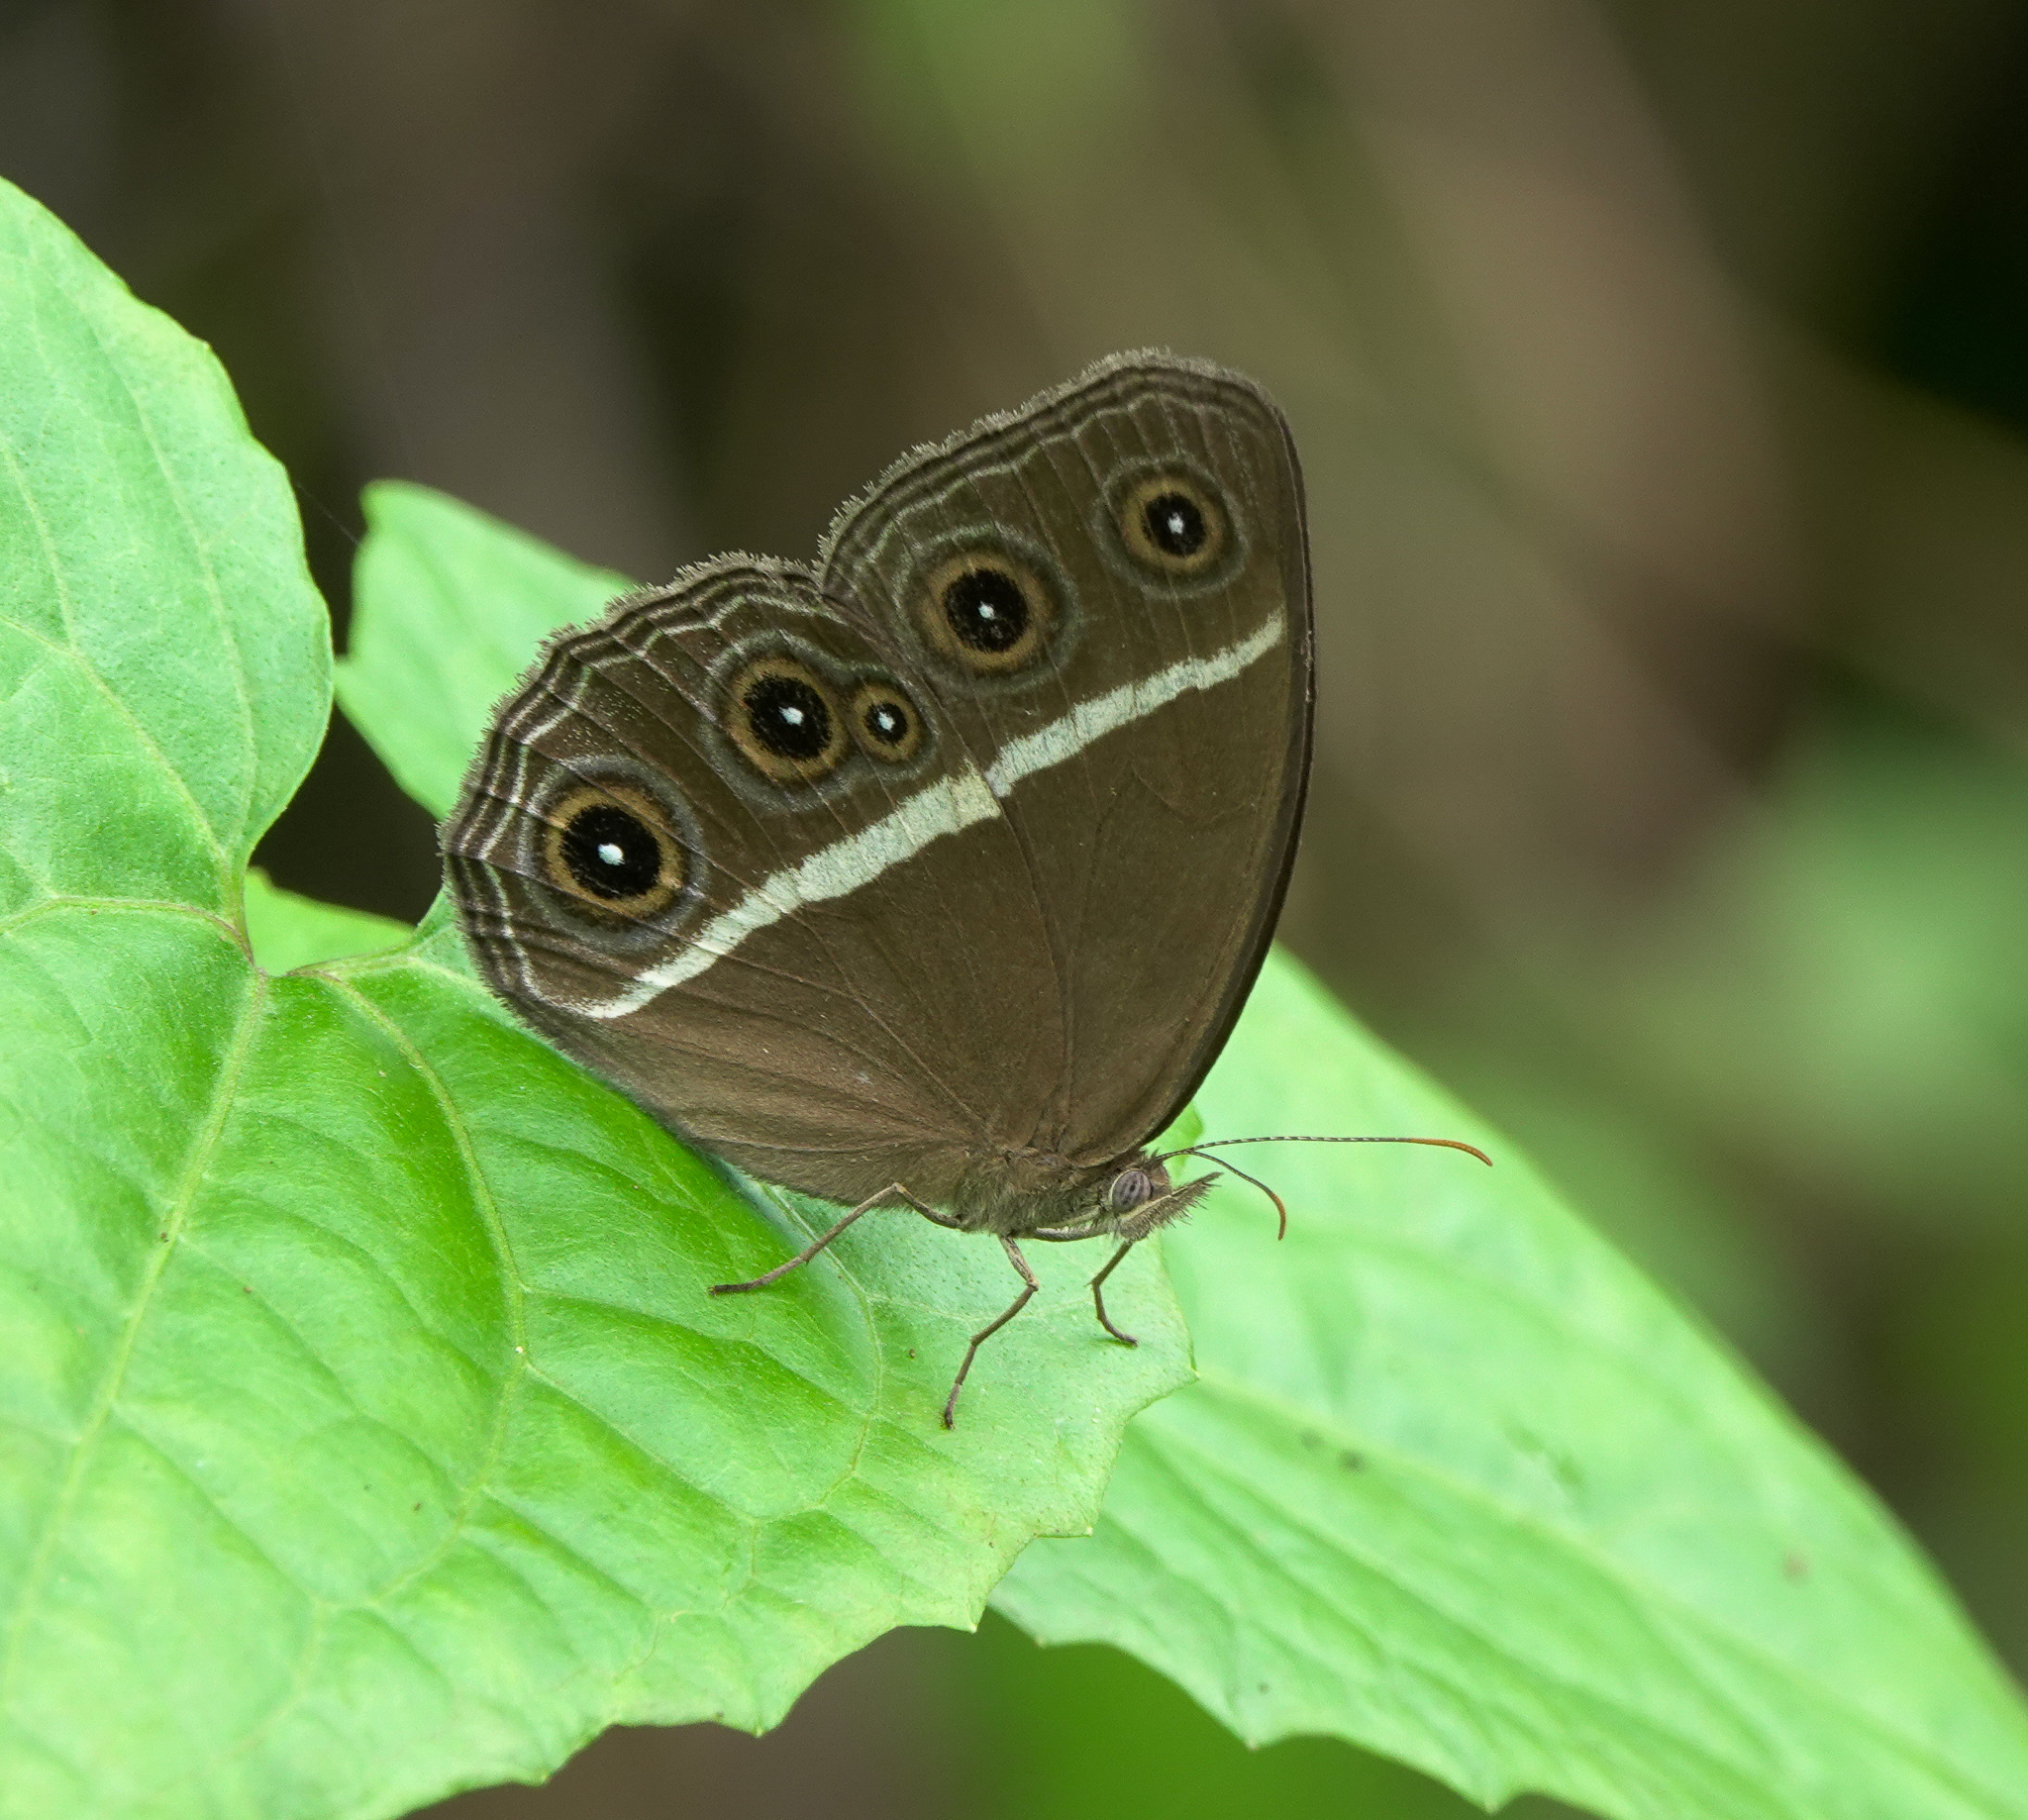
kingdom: Animalia
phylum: Arthropoda
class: Insecta
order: Lepidoptera
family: Nymphalidae
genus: Orsotriaena
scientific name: Orsotriaena medus
